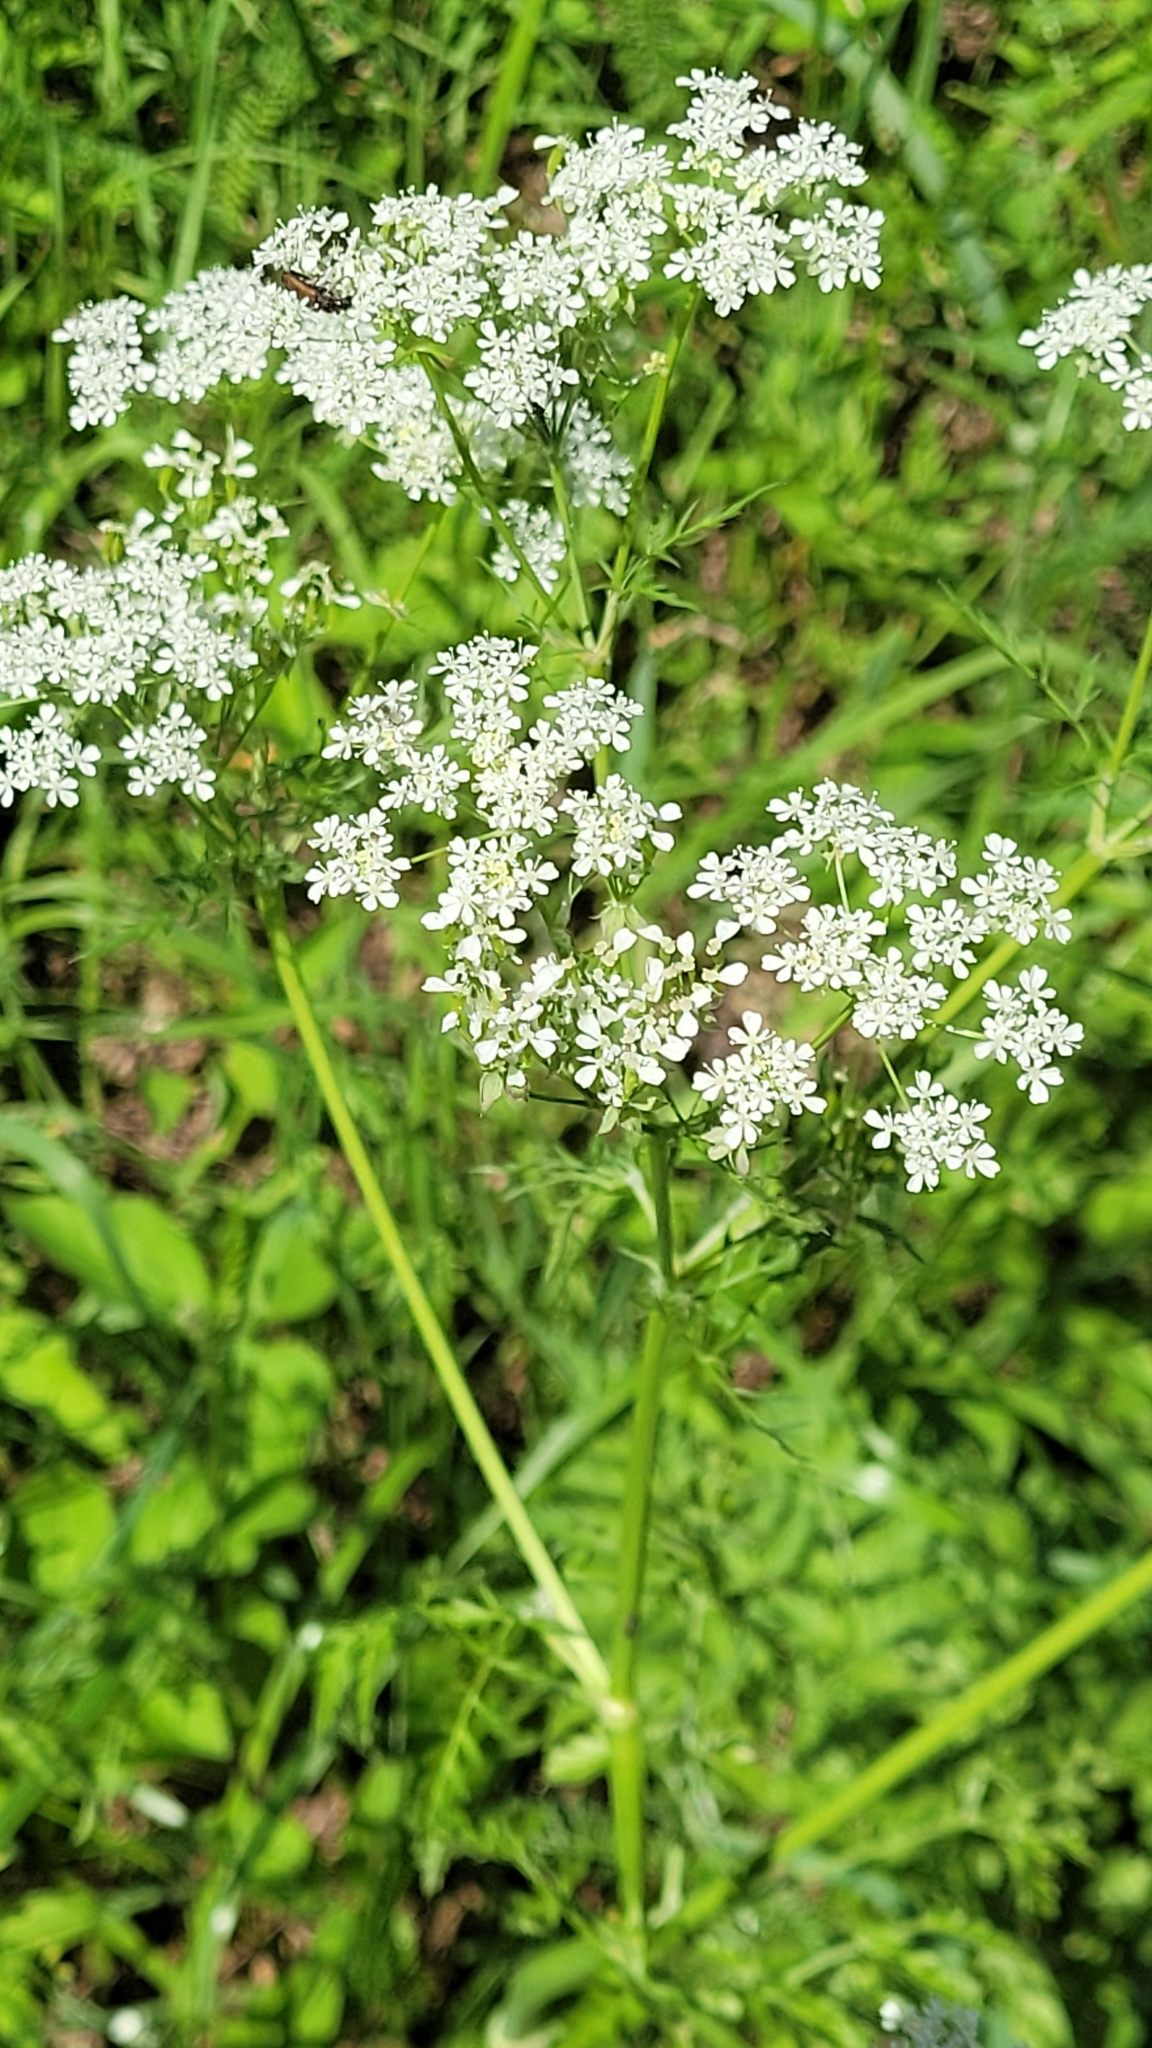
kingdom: Plantae
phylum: Tracheophyta
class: Magnoliopsida
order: Apiales
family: Apiaceae
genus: Anthriscus
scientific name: Anthriscus sylvestris
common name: Cow parsley
